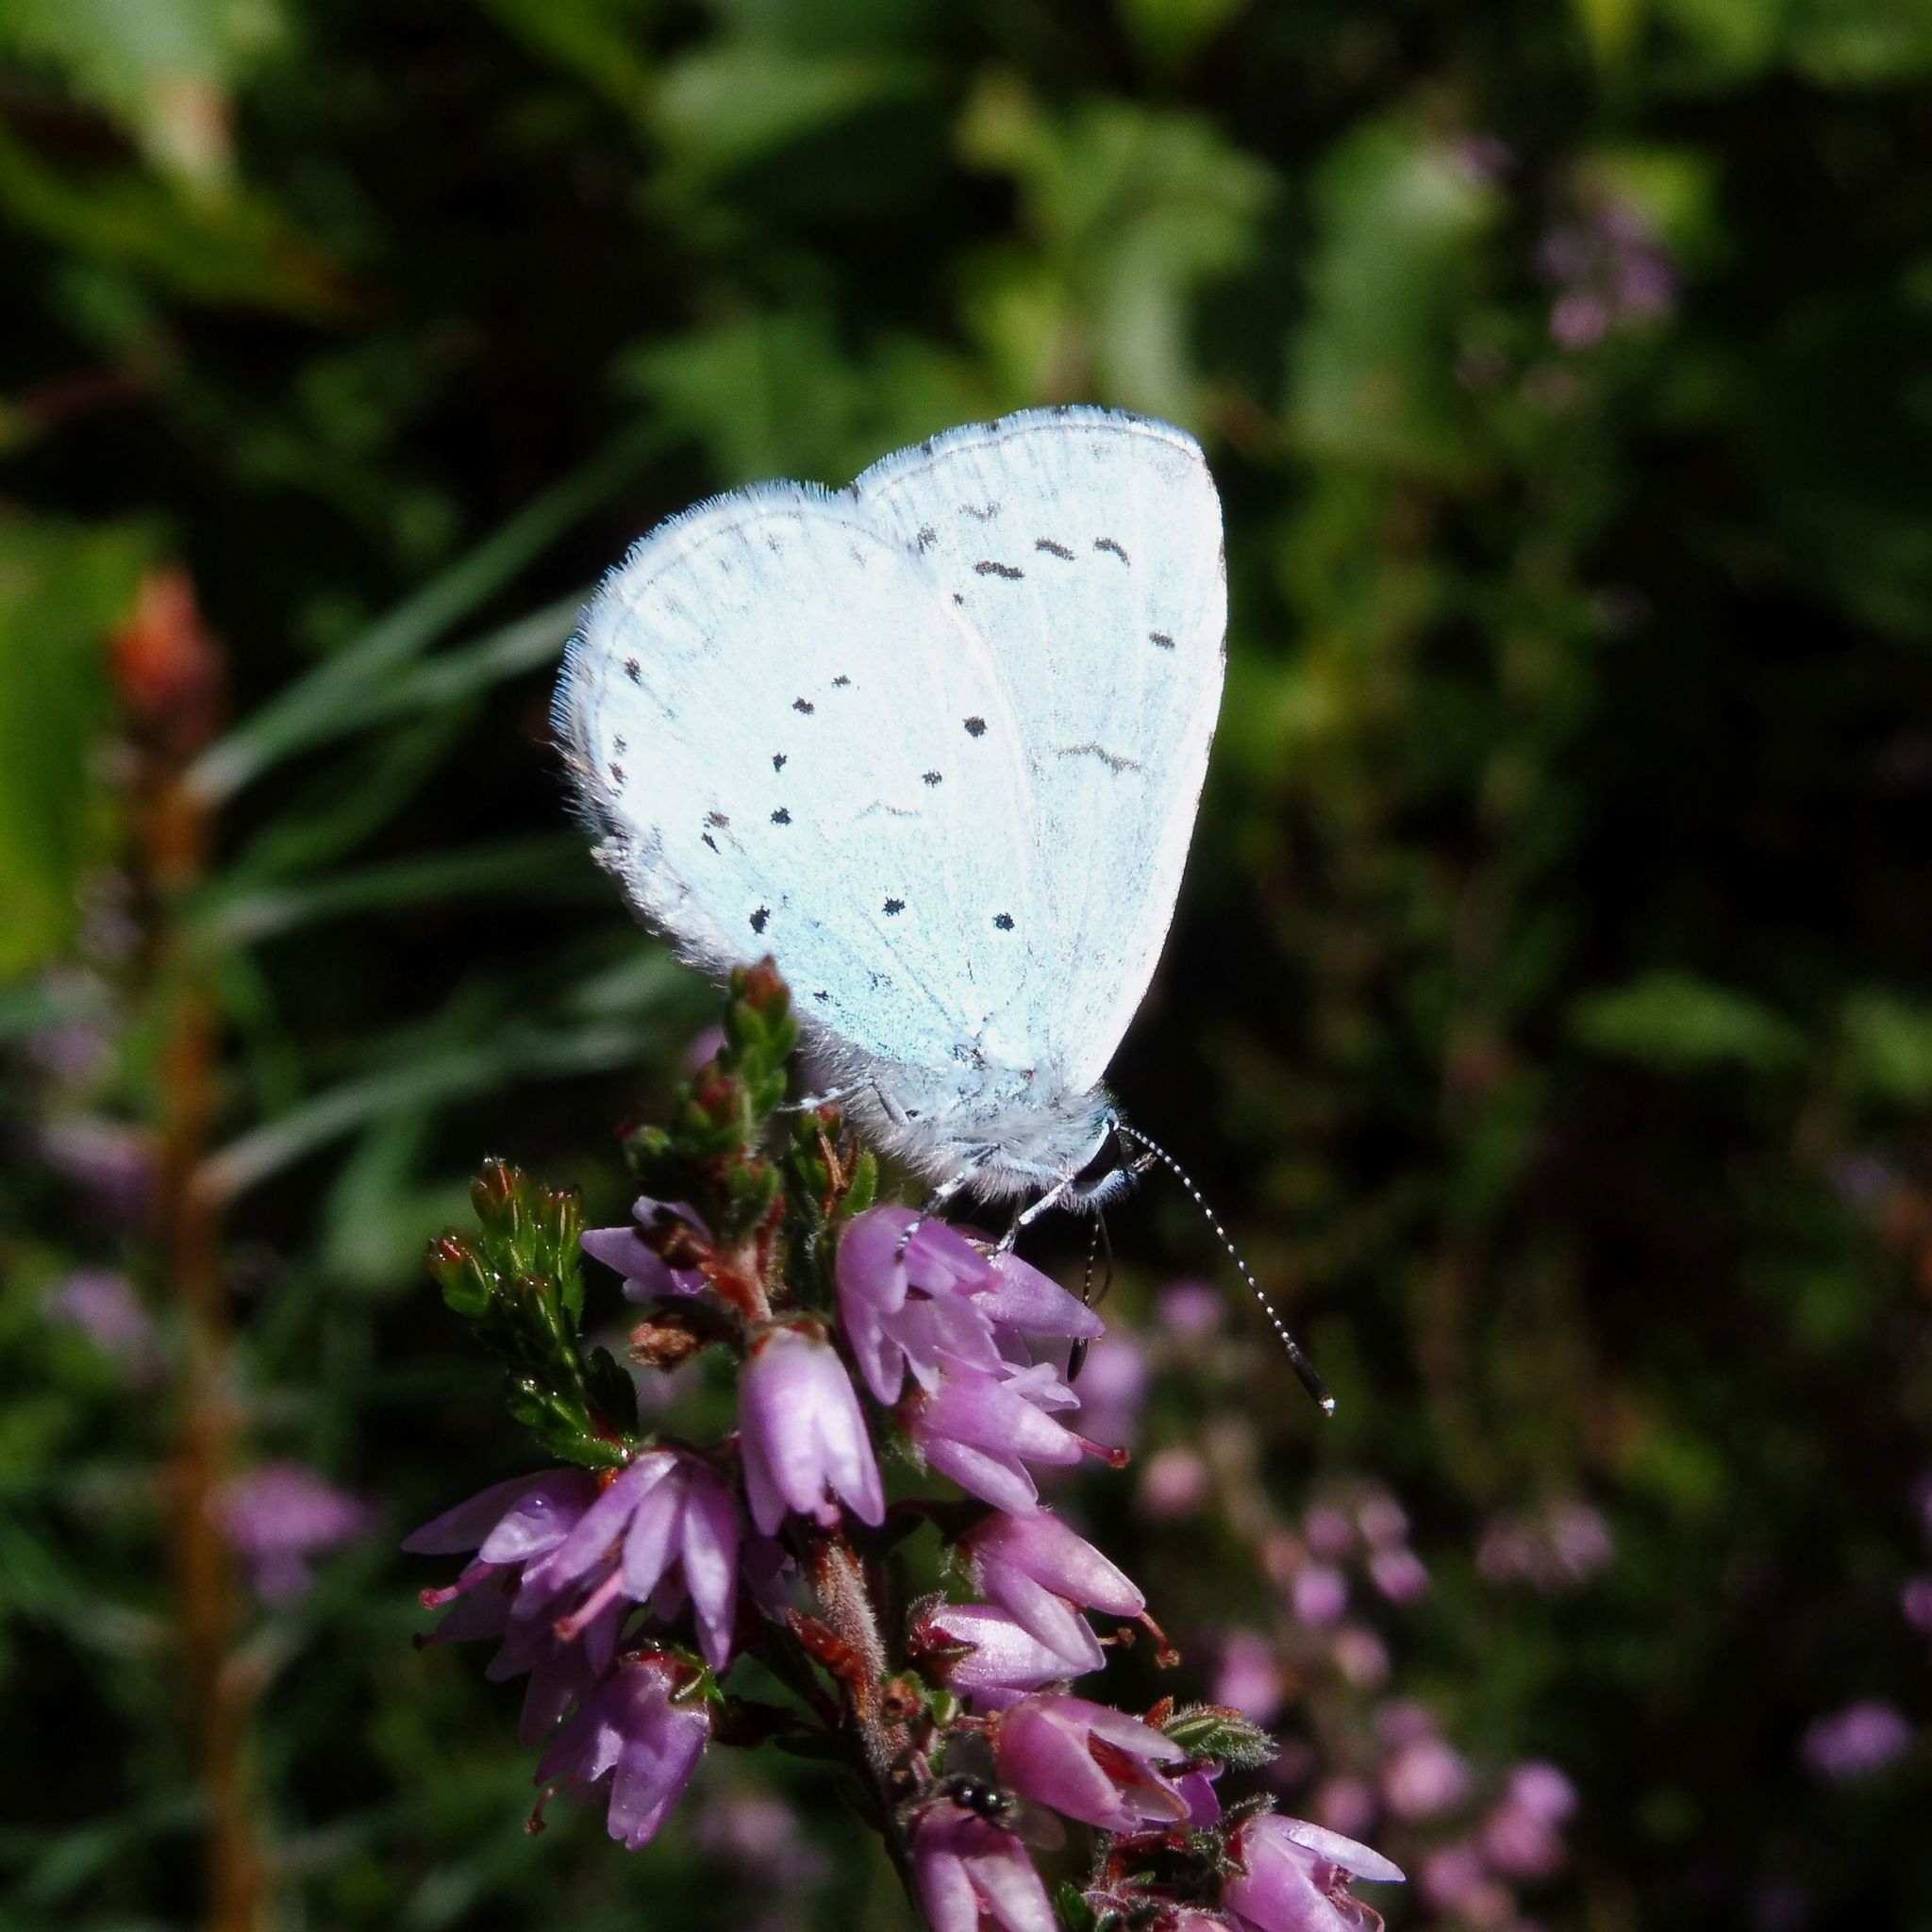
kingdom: Animalia
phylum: Arthropoda
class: Insecta
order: Lepidoptera
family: Lycaenidae
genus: Celastrina
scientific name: Celastrina argiolus
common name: Holly blue
